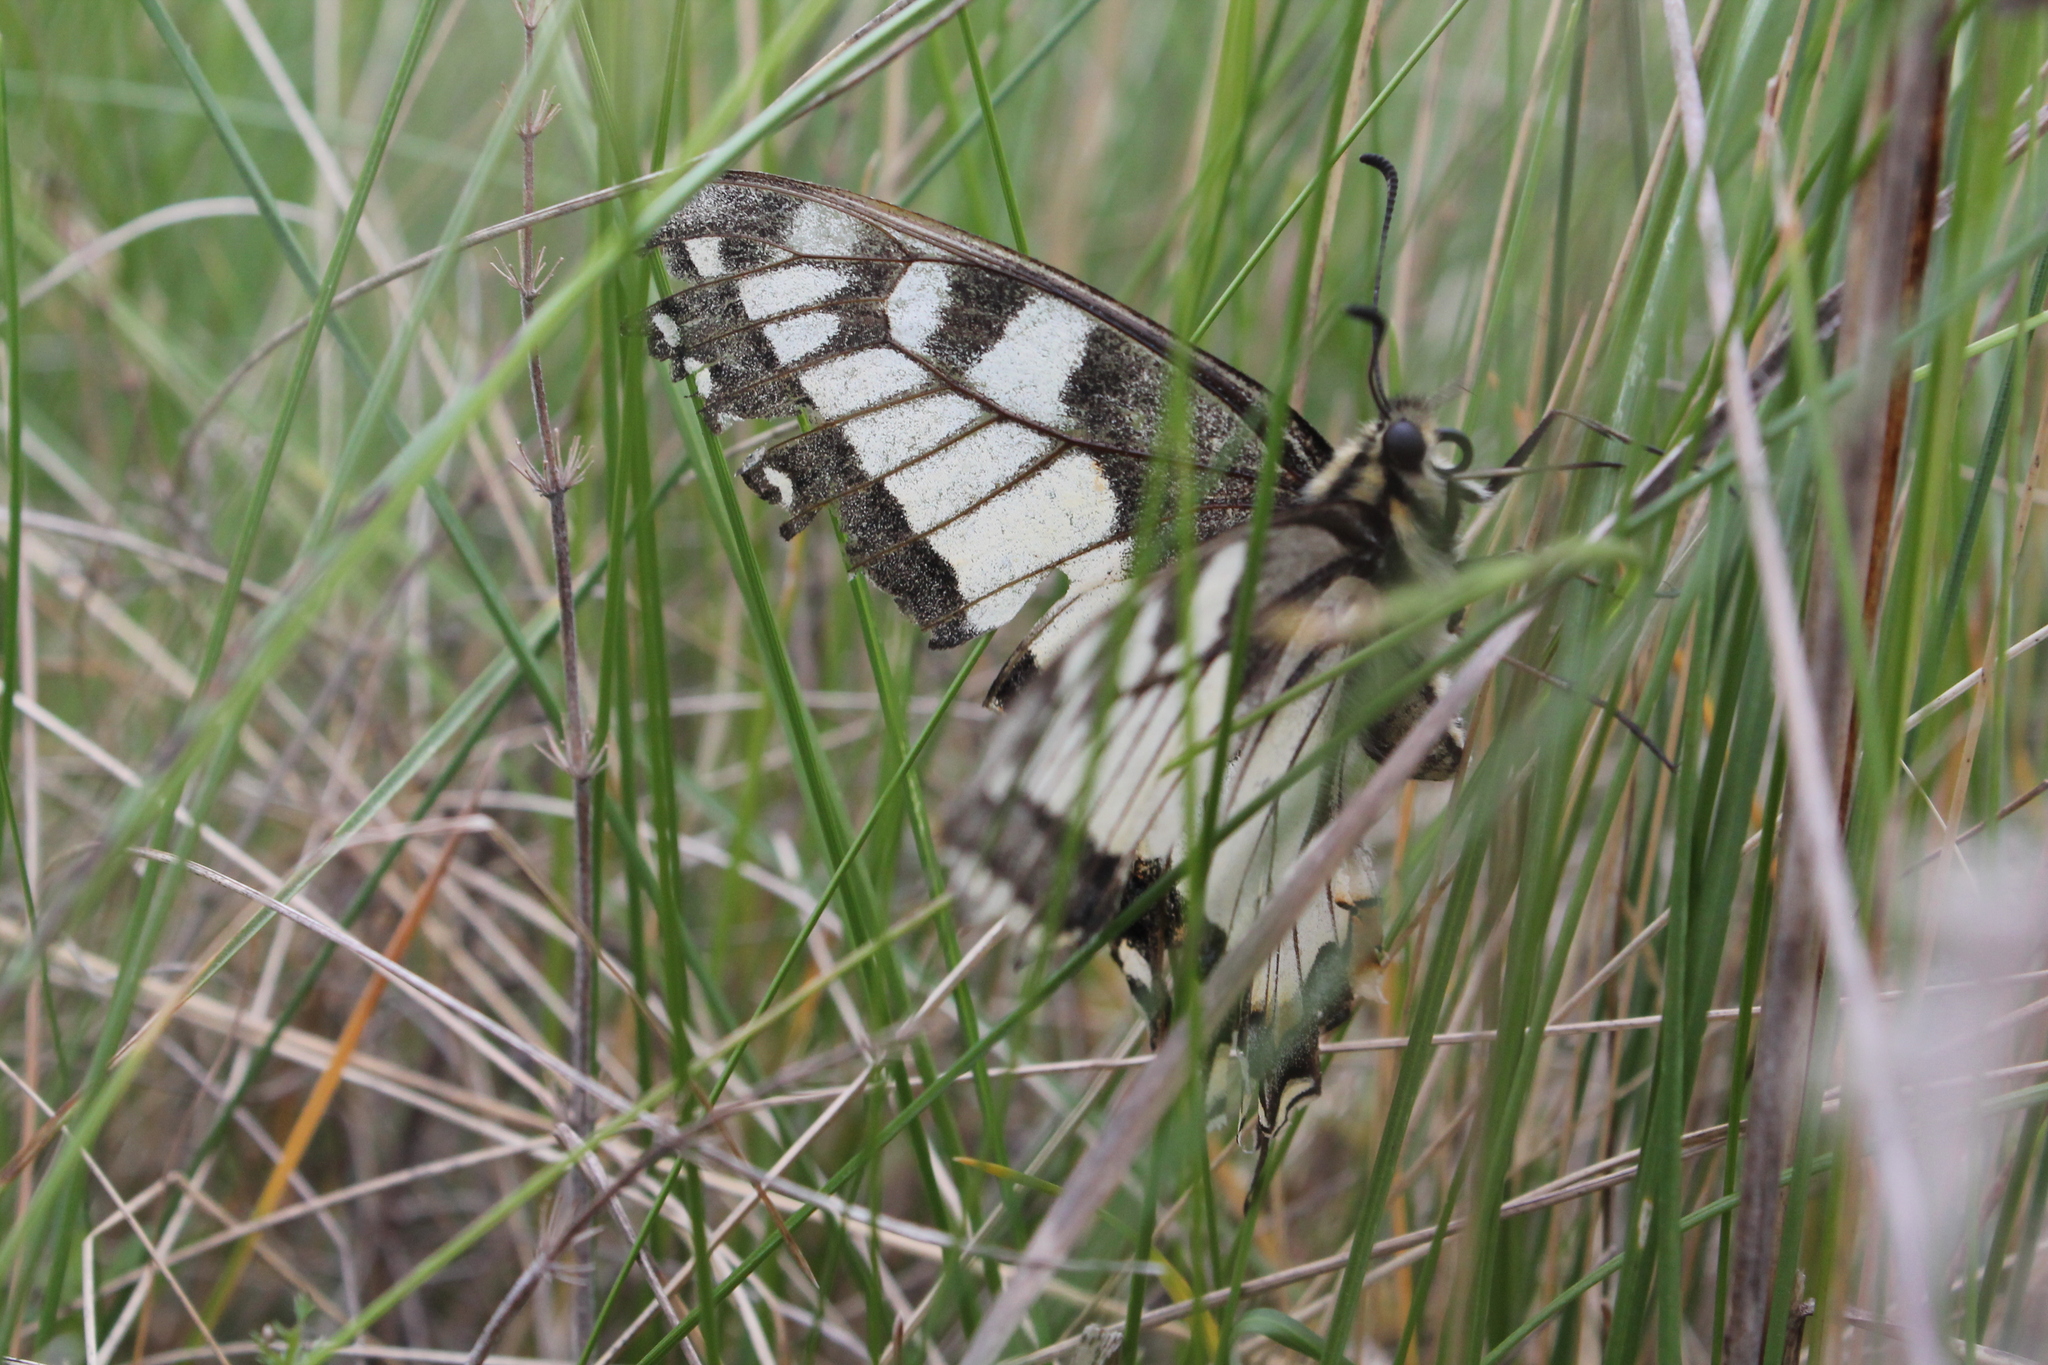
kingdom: Animalia
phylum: Arthropoda
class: Insecta
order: Lepidoptera
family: Papilionidae
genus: Papilio
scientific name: Papilio machaon
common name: Swallowtail
